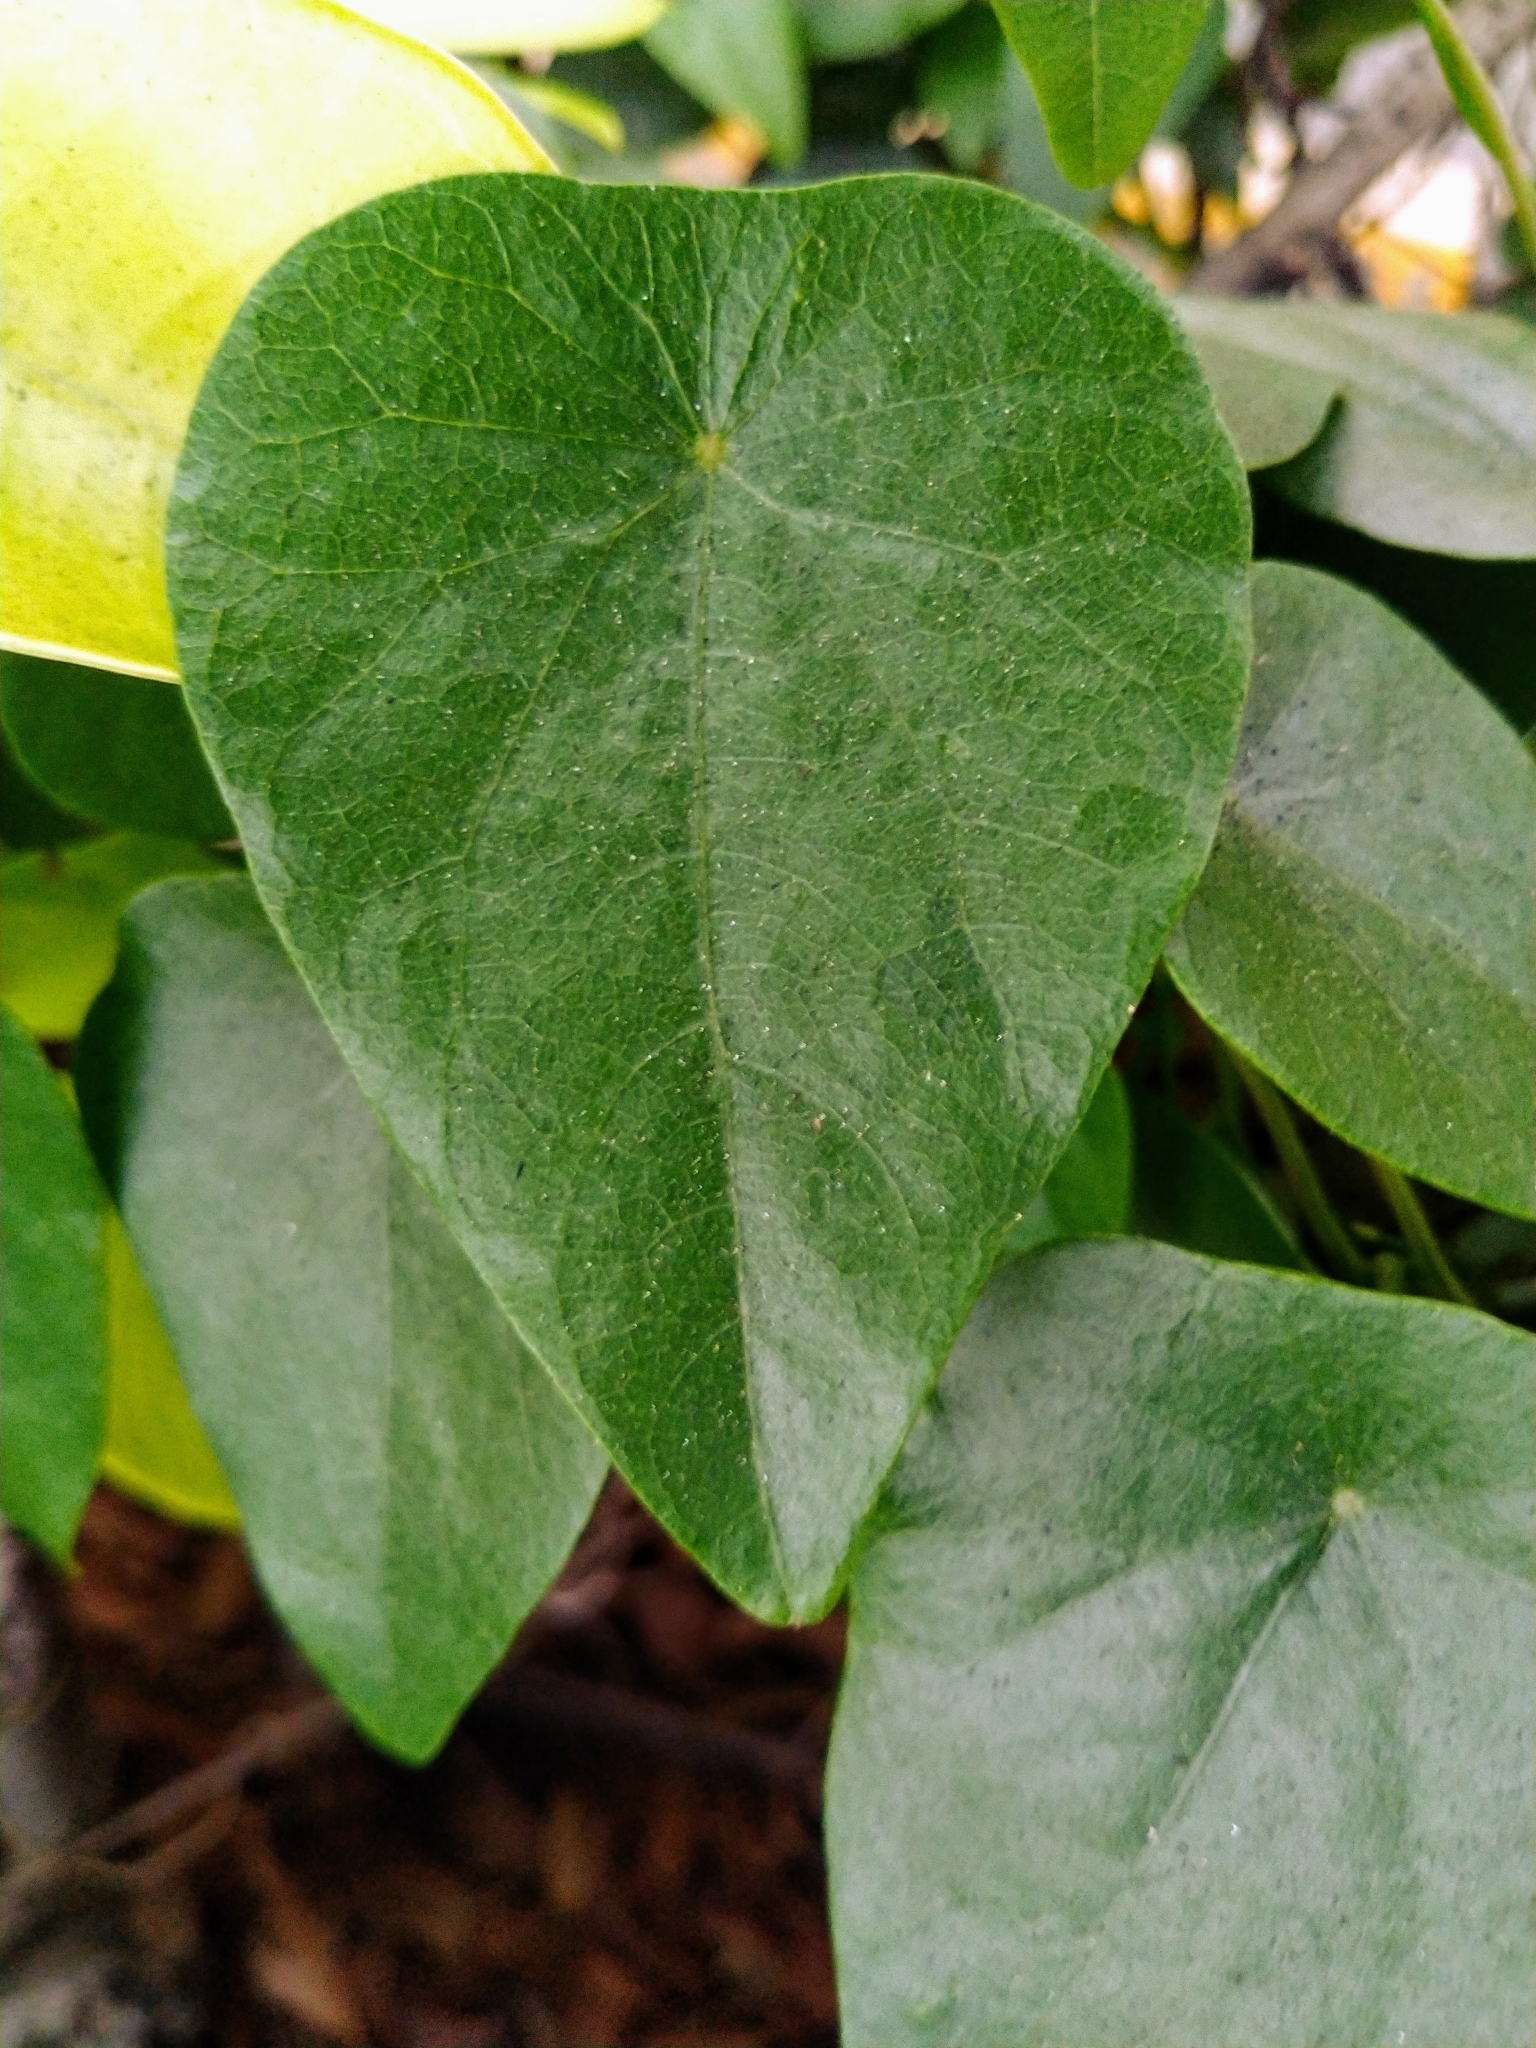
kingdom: Plantae
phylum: Tracheophyta
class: Magnoliopsida
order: Ranunculales
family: Menispermaceae
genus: Stephania
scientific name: Stephania japonica
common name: Snake vine
